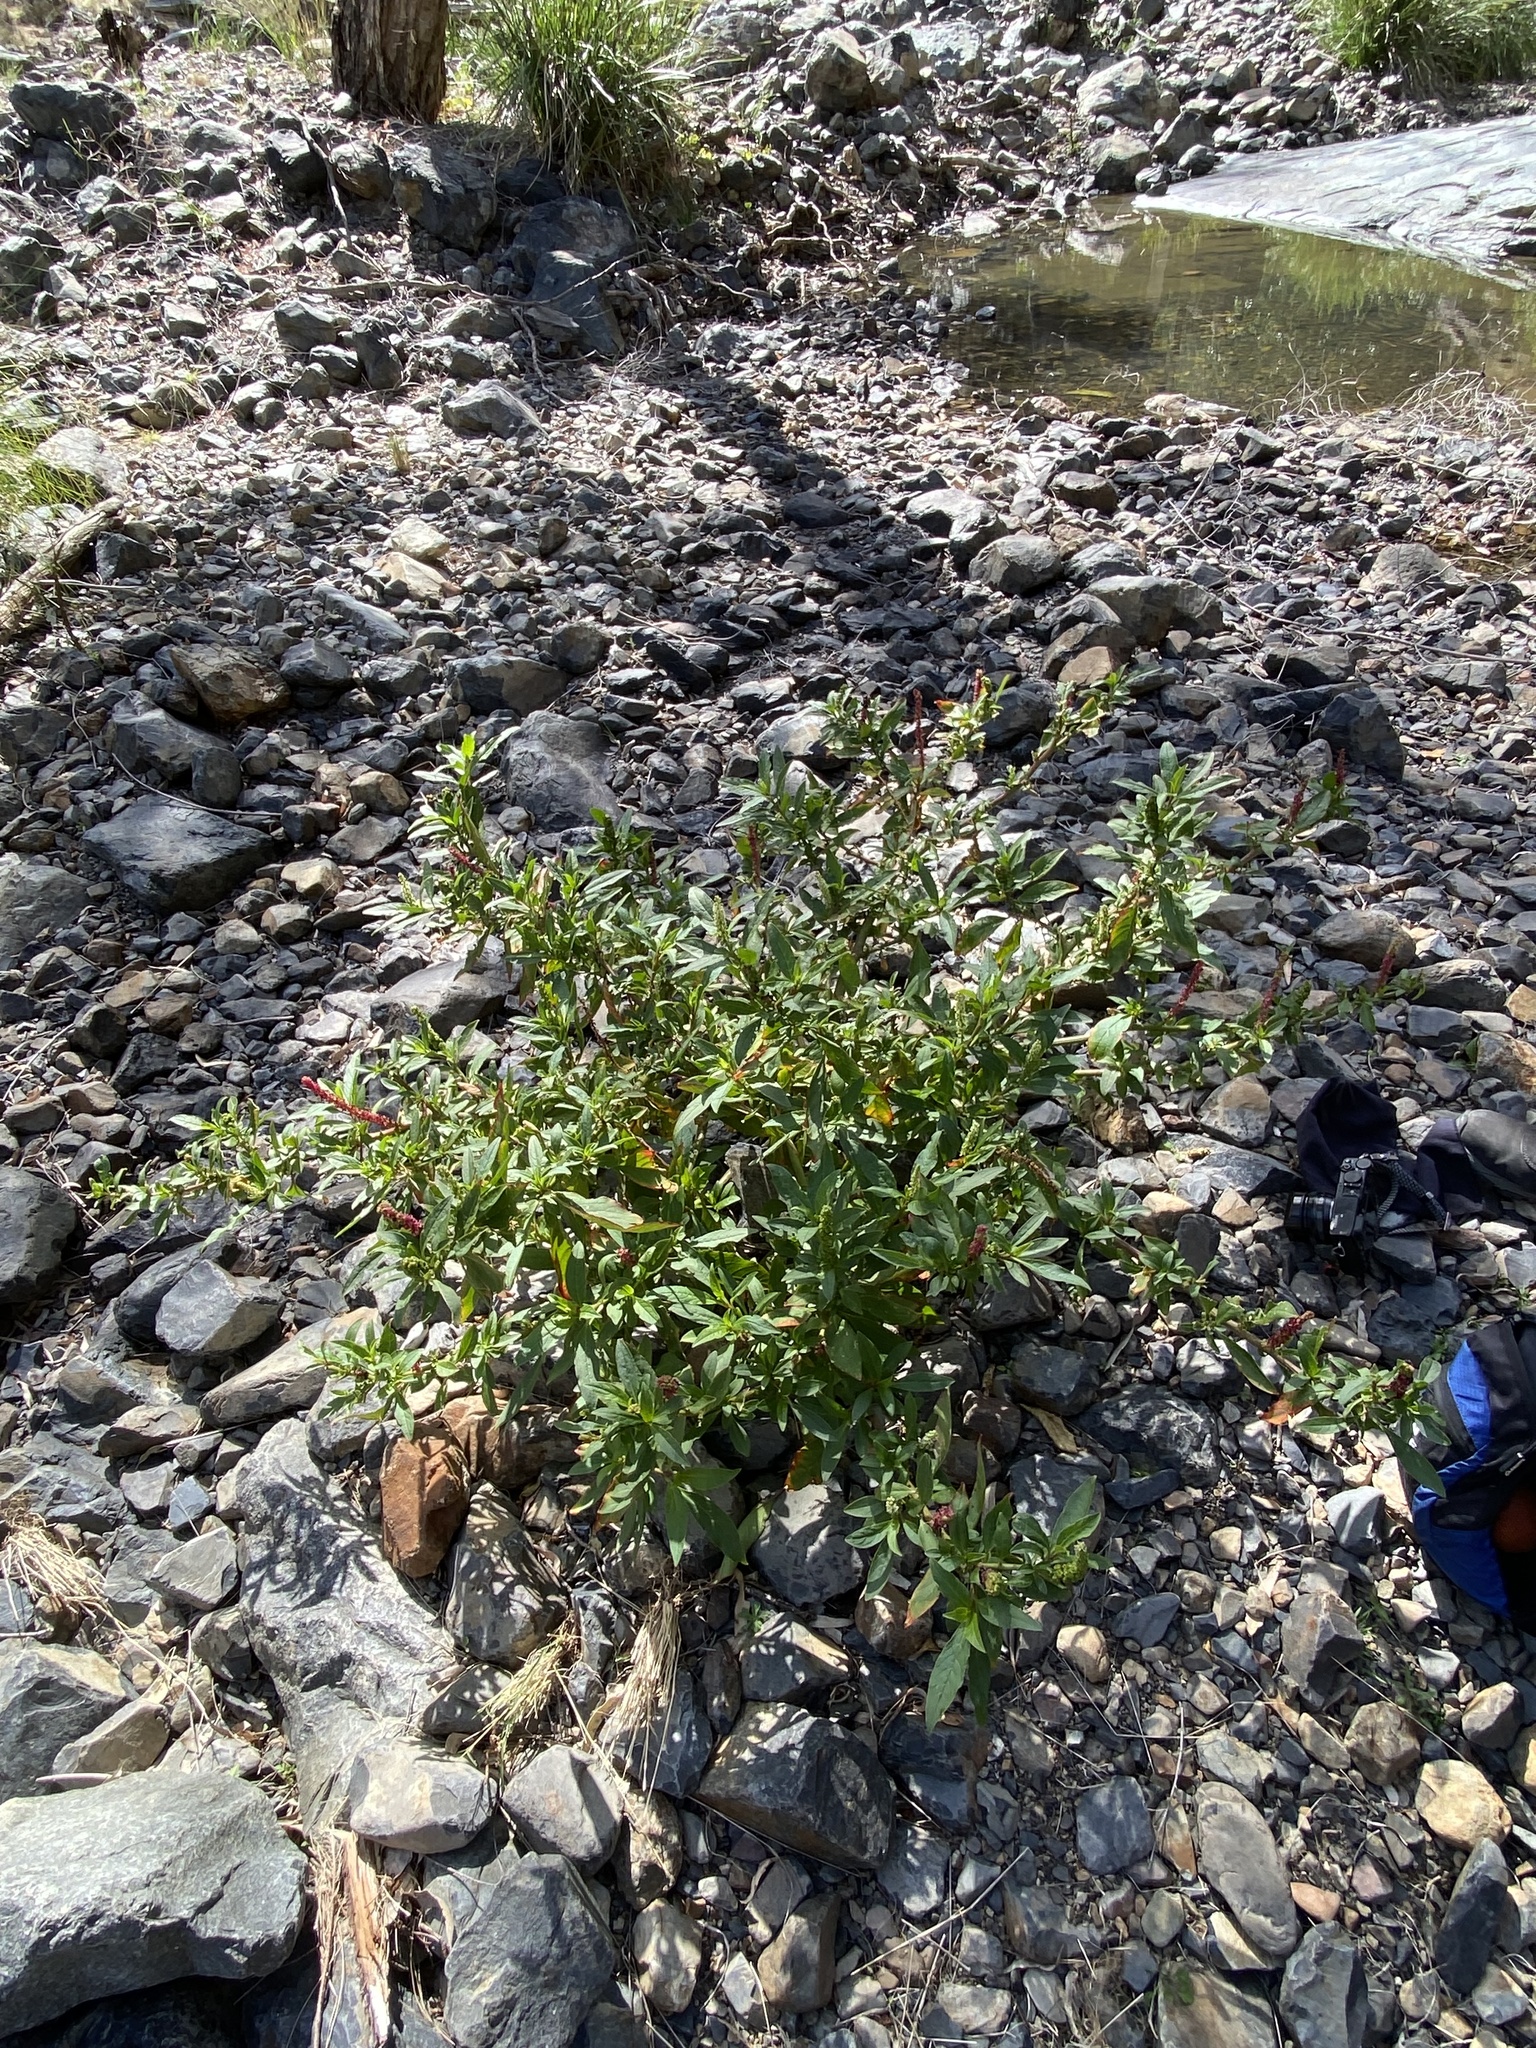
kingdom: Plantae
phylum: Tracheophyta
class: Magnoliopsida
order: Caryophyllales
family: Phytolaccaceae
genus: Phytolacca
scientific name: Phytolacca icosandra
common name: Button pokeweed
